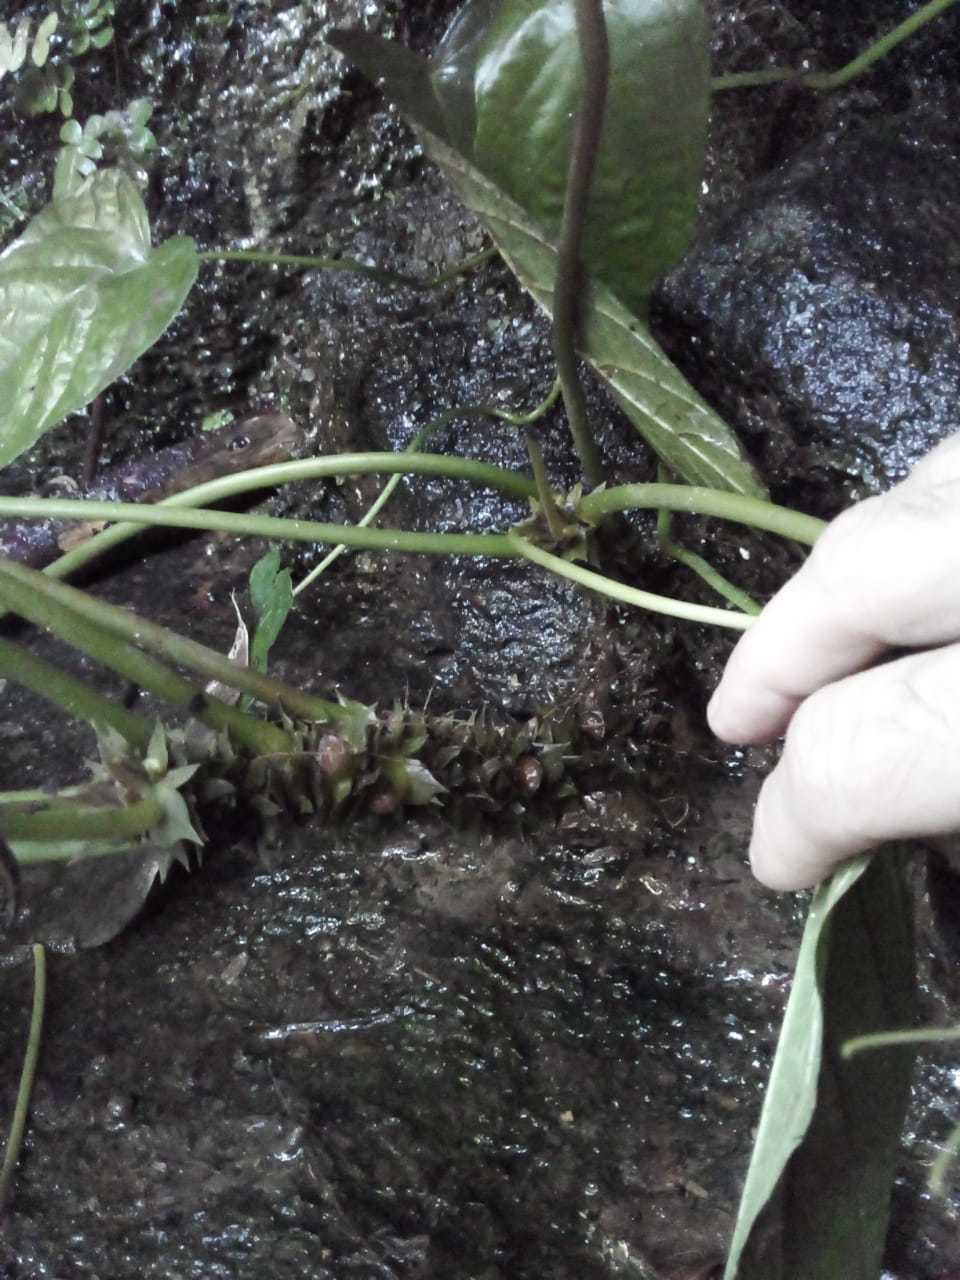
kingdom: Plantae
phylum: Tracheophyta
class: Magnoliopsida
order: Rosales
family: Moraceae
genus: Dorstenia
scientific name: Dorstenia ramosa
